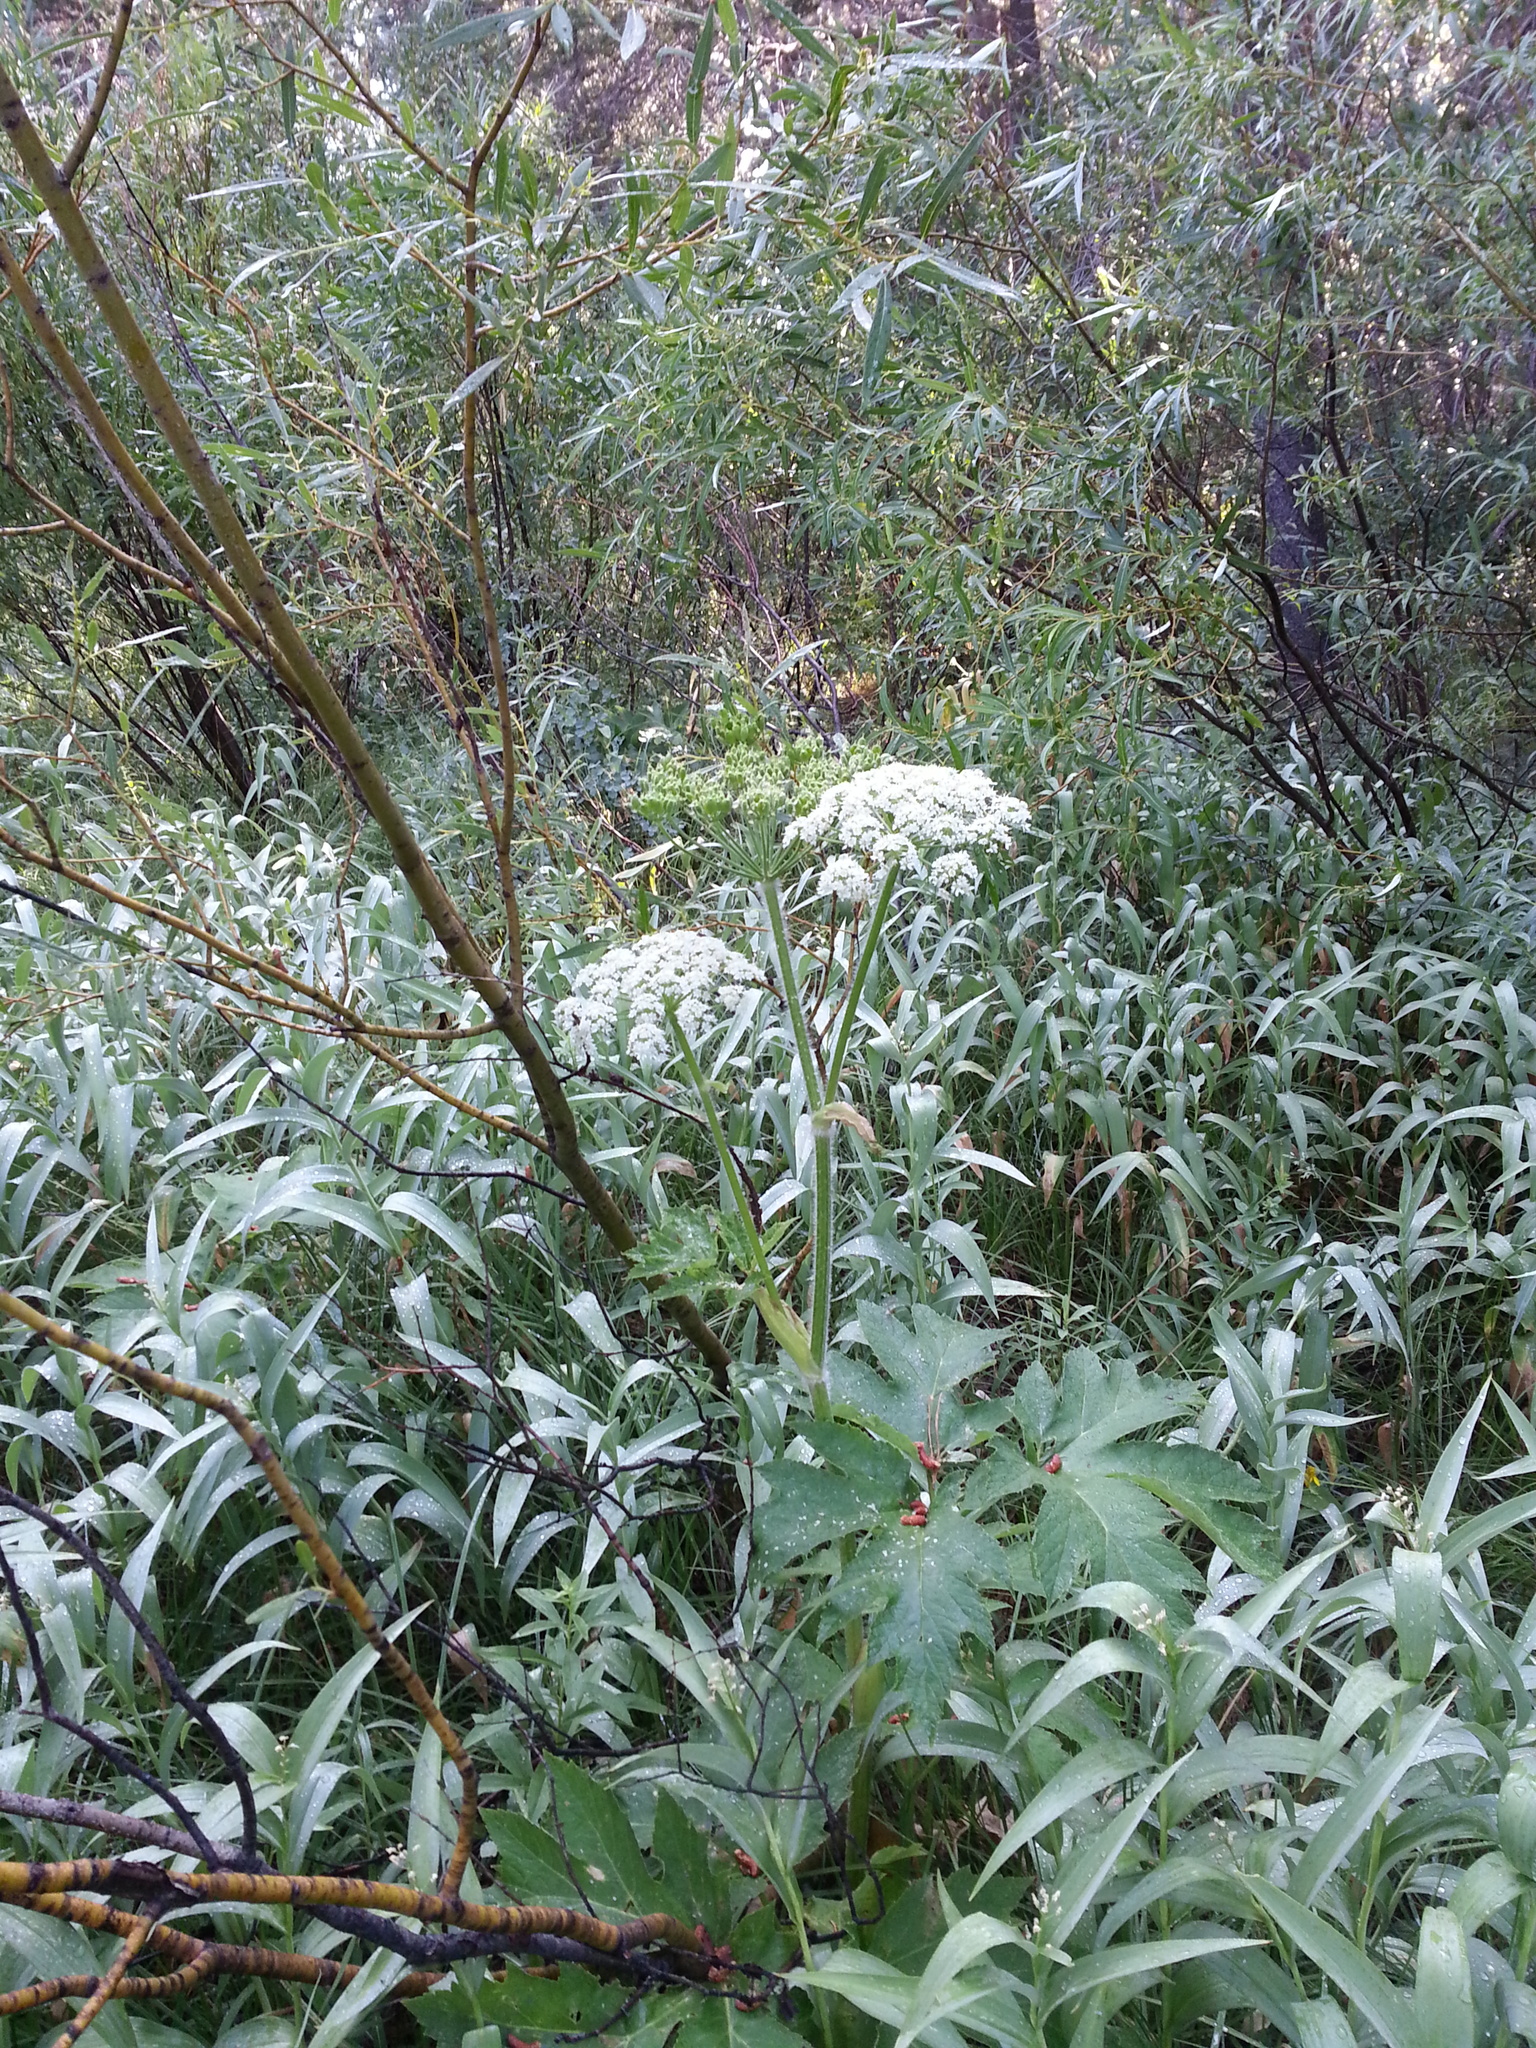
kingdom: Plantae
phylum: Tracheophyta
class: Magnoliopsida
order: Apiales
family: Apiaceae
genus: Heracleum
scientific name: Heracleum maximum
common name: American cow parsnip
